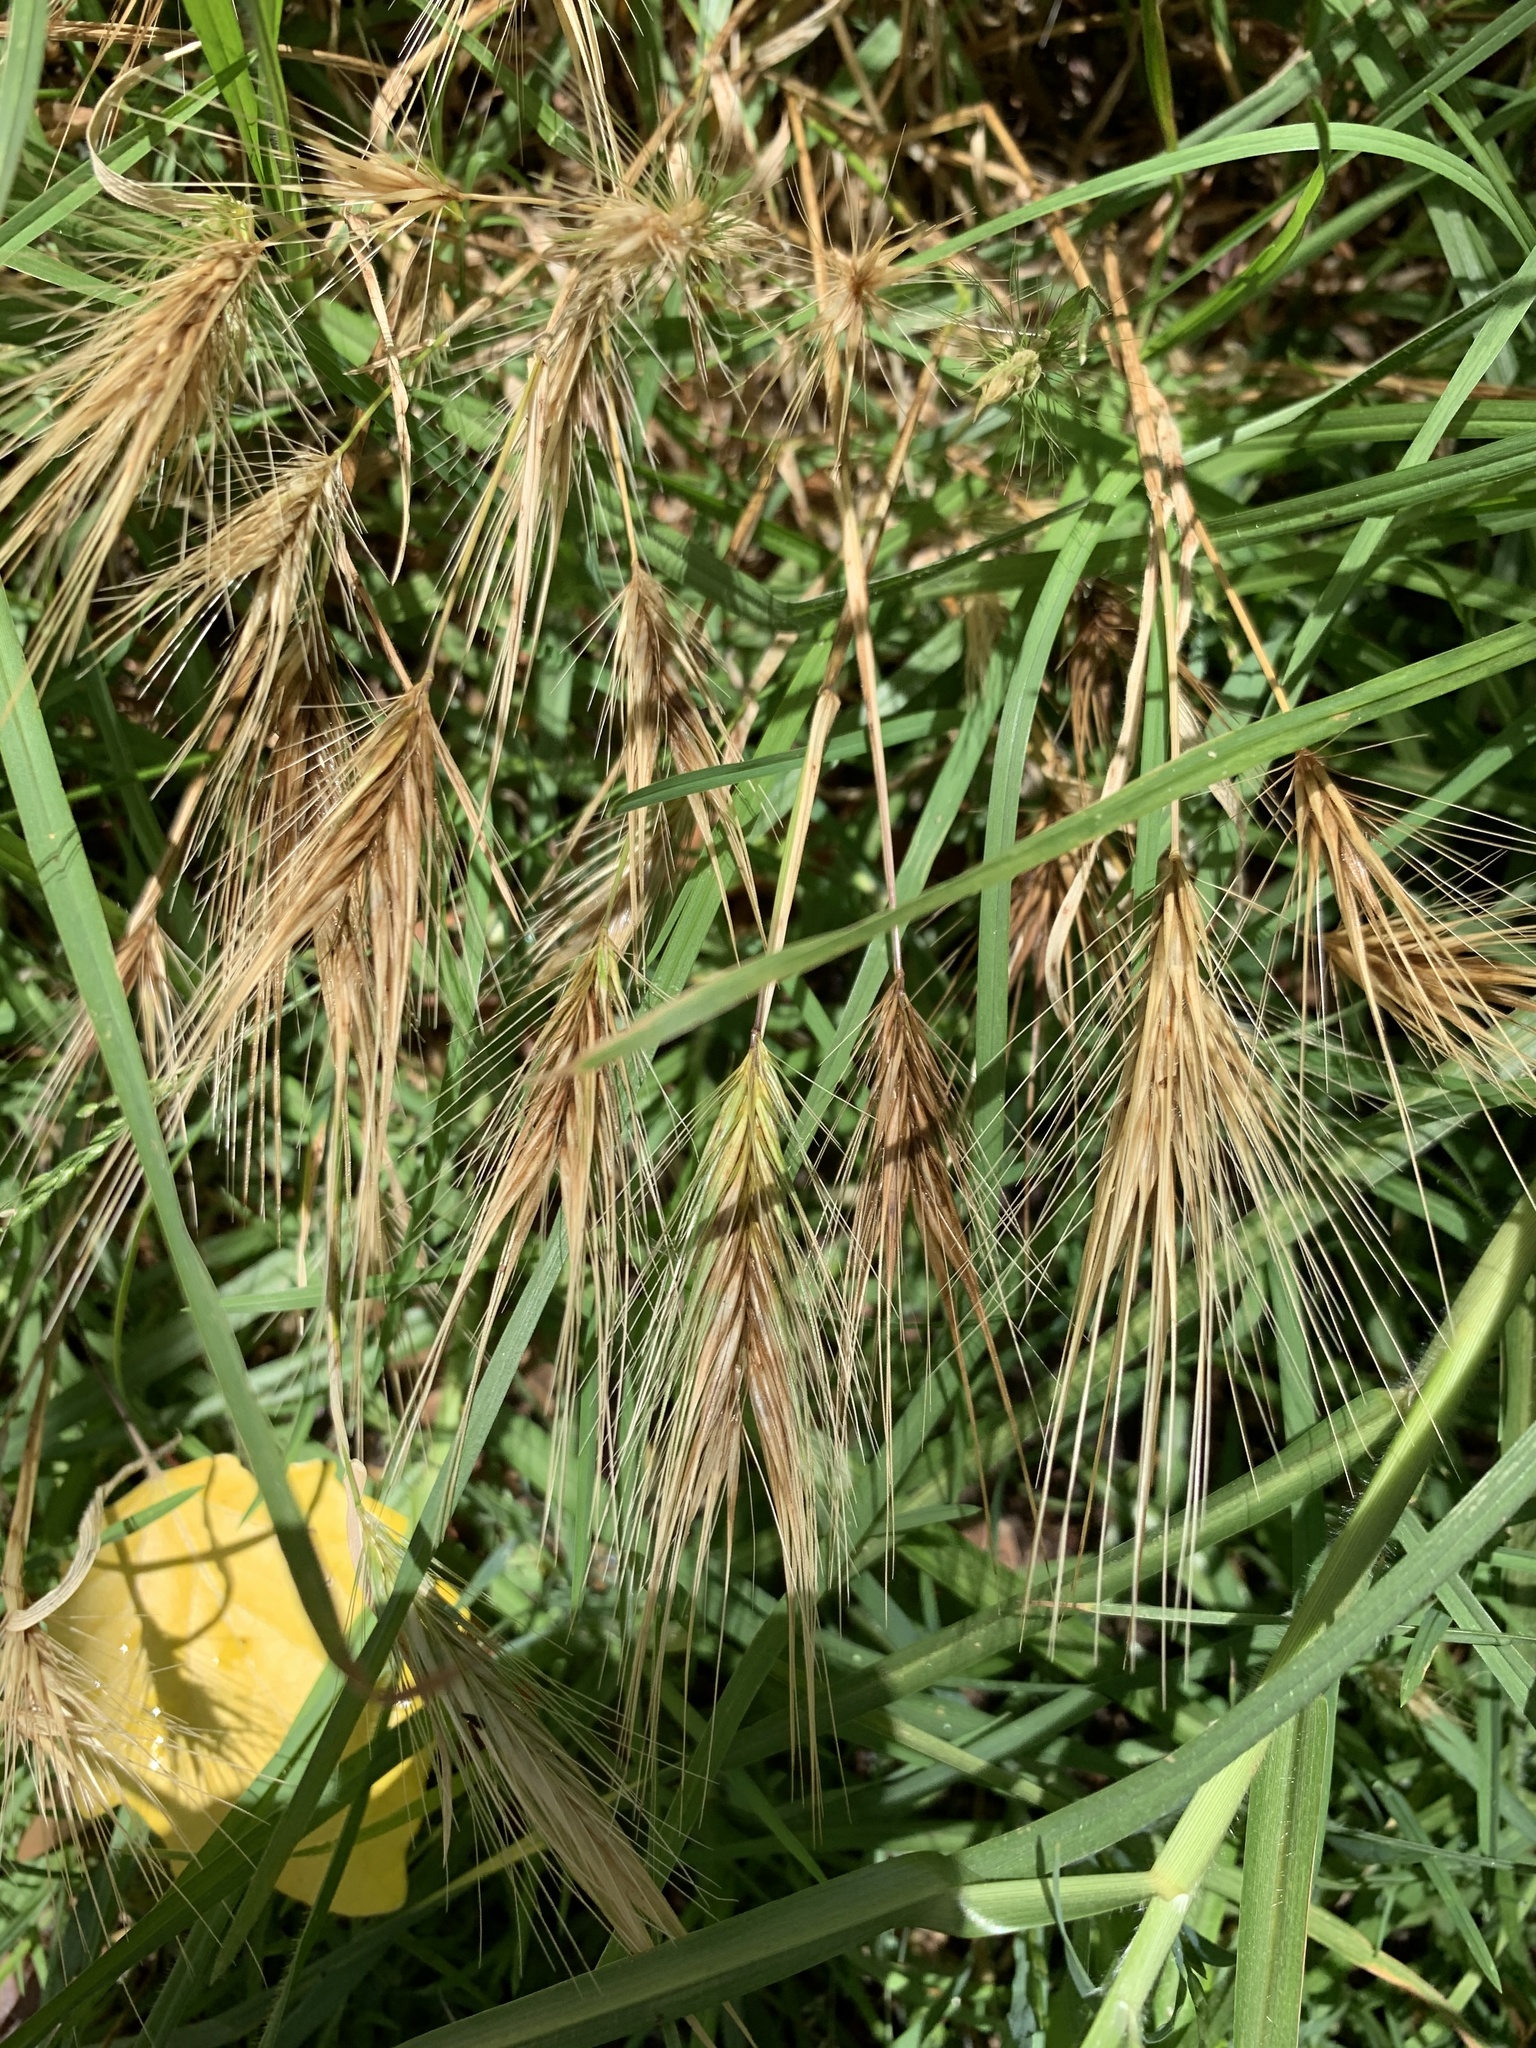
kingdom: Plantae
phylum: Tracheophyta
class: Liliopsida
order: Poales
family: Poaceae
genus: Hordeum
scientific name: Hordeum murinum
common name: Wall barley
